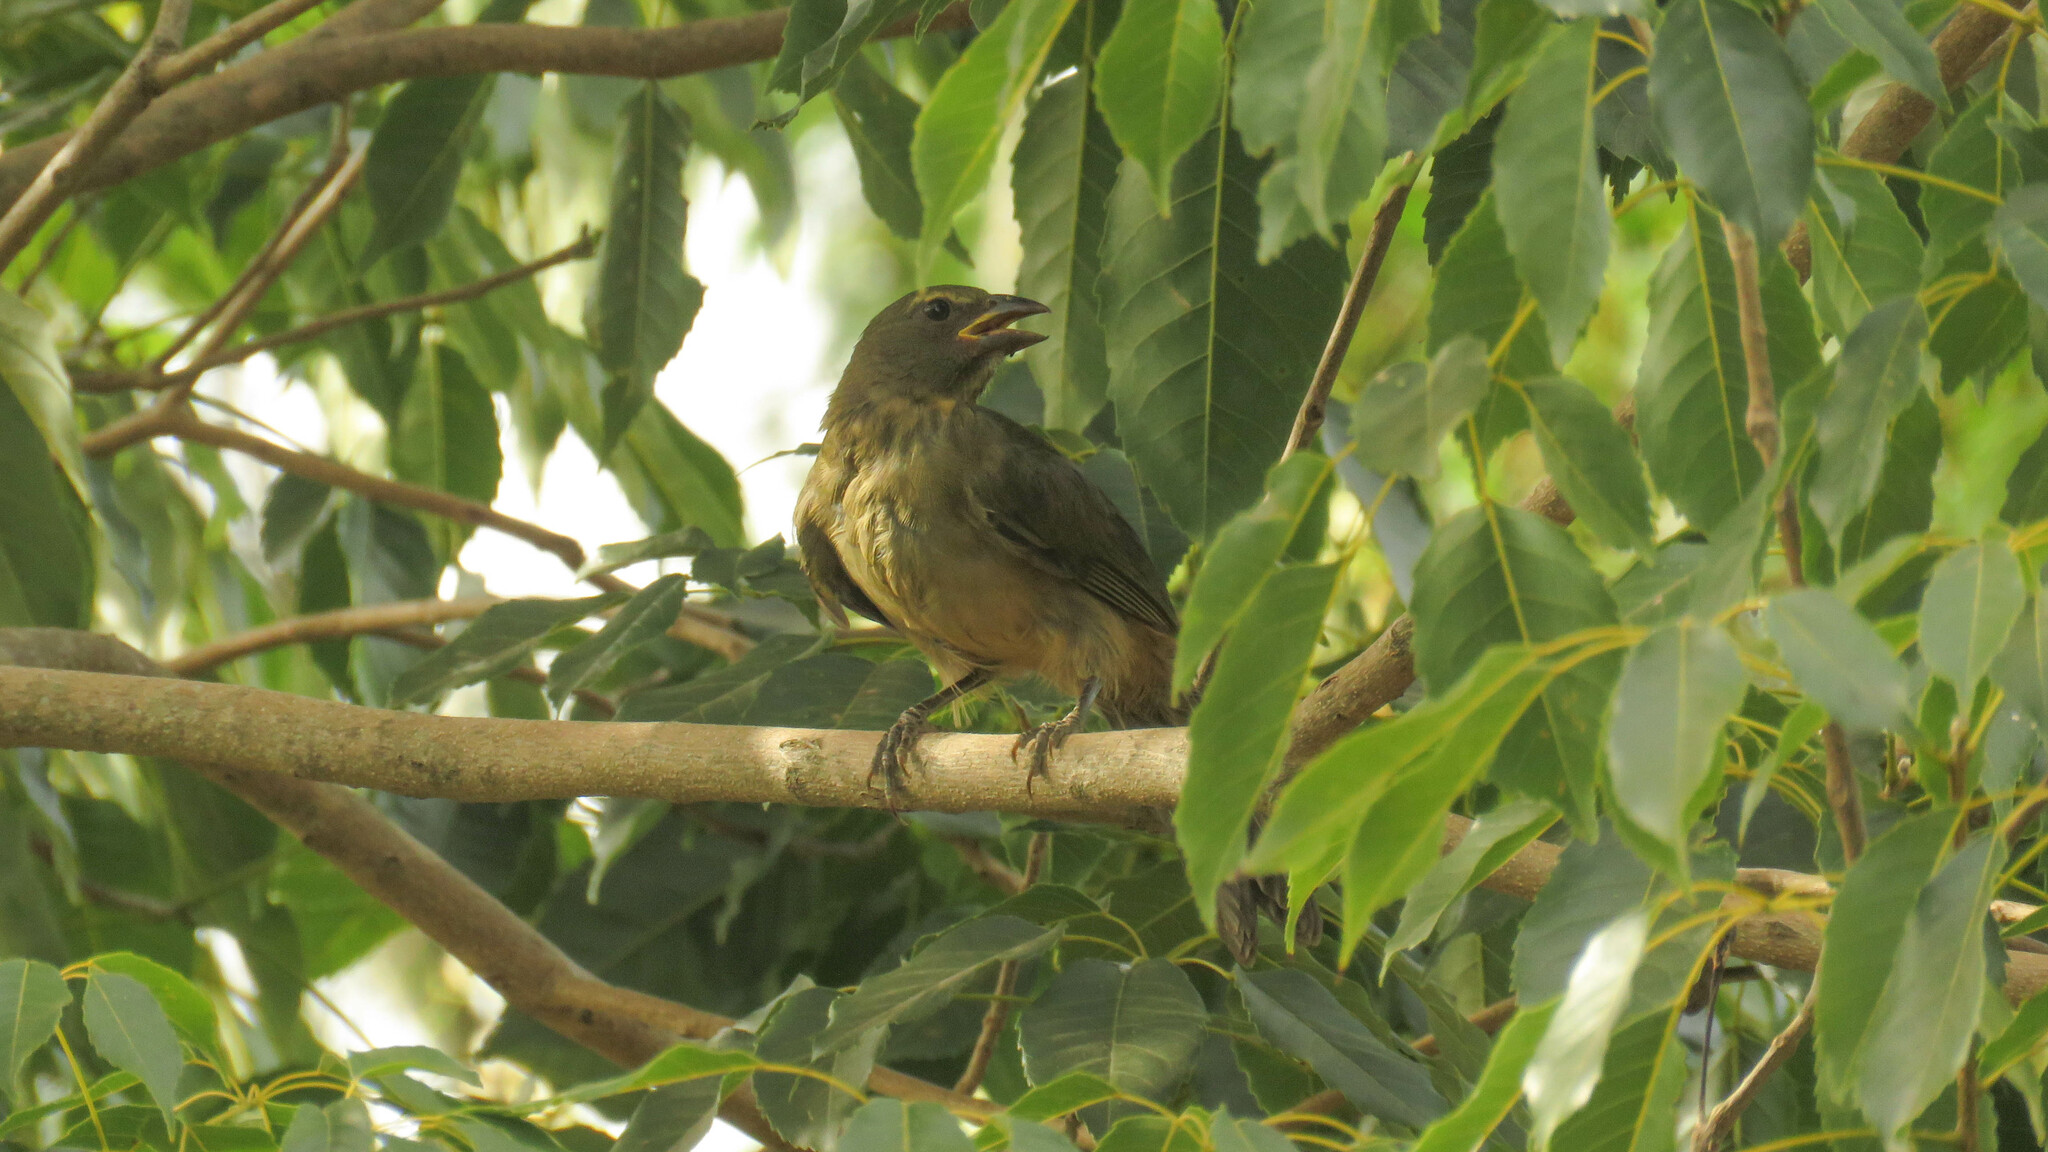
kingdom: Animalia
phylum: Chordata
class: Aves
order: Passeriformes
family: Thraupidae
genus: Saltator
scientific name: Saltator coerulescens
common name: Grayish saltator
